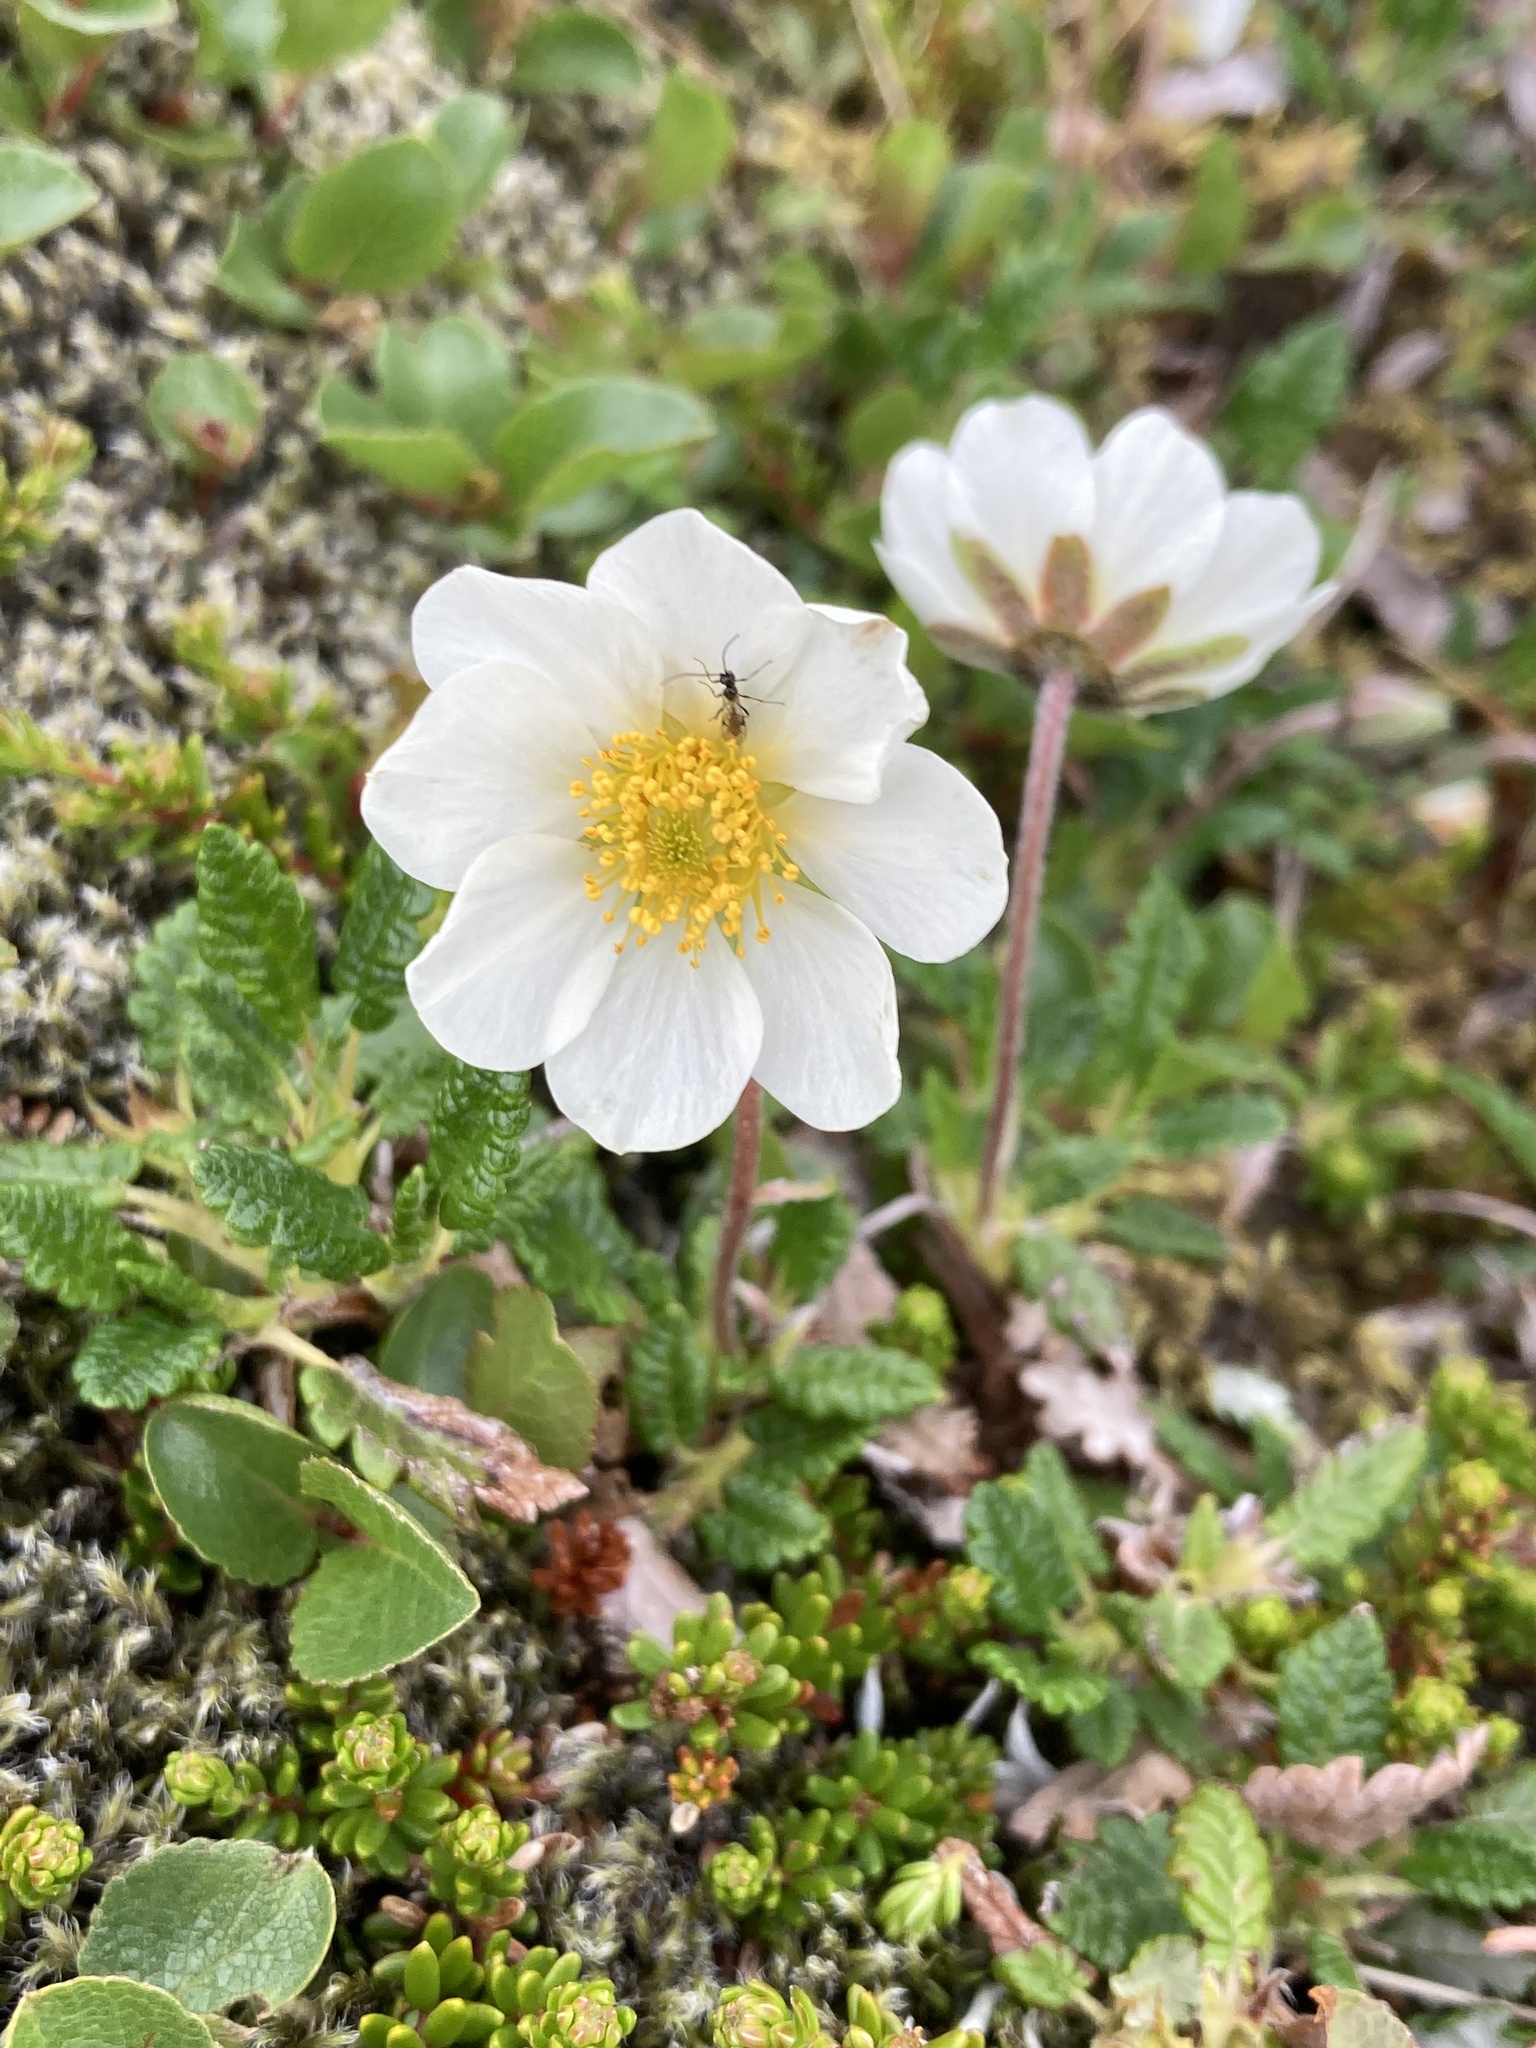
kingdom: Plantae
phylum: Tracheophyta
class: Magnoliopsida
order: Rosales
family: Rosaceae
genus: Dryas
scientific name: Dryas octopetala
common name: Eight-petal mountain-avens
